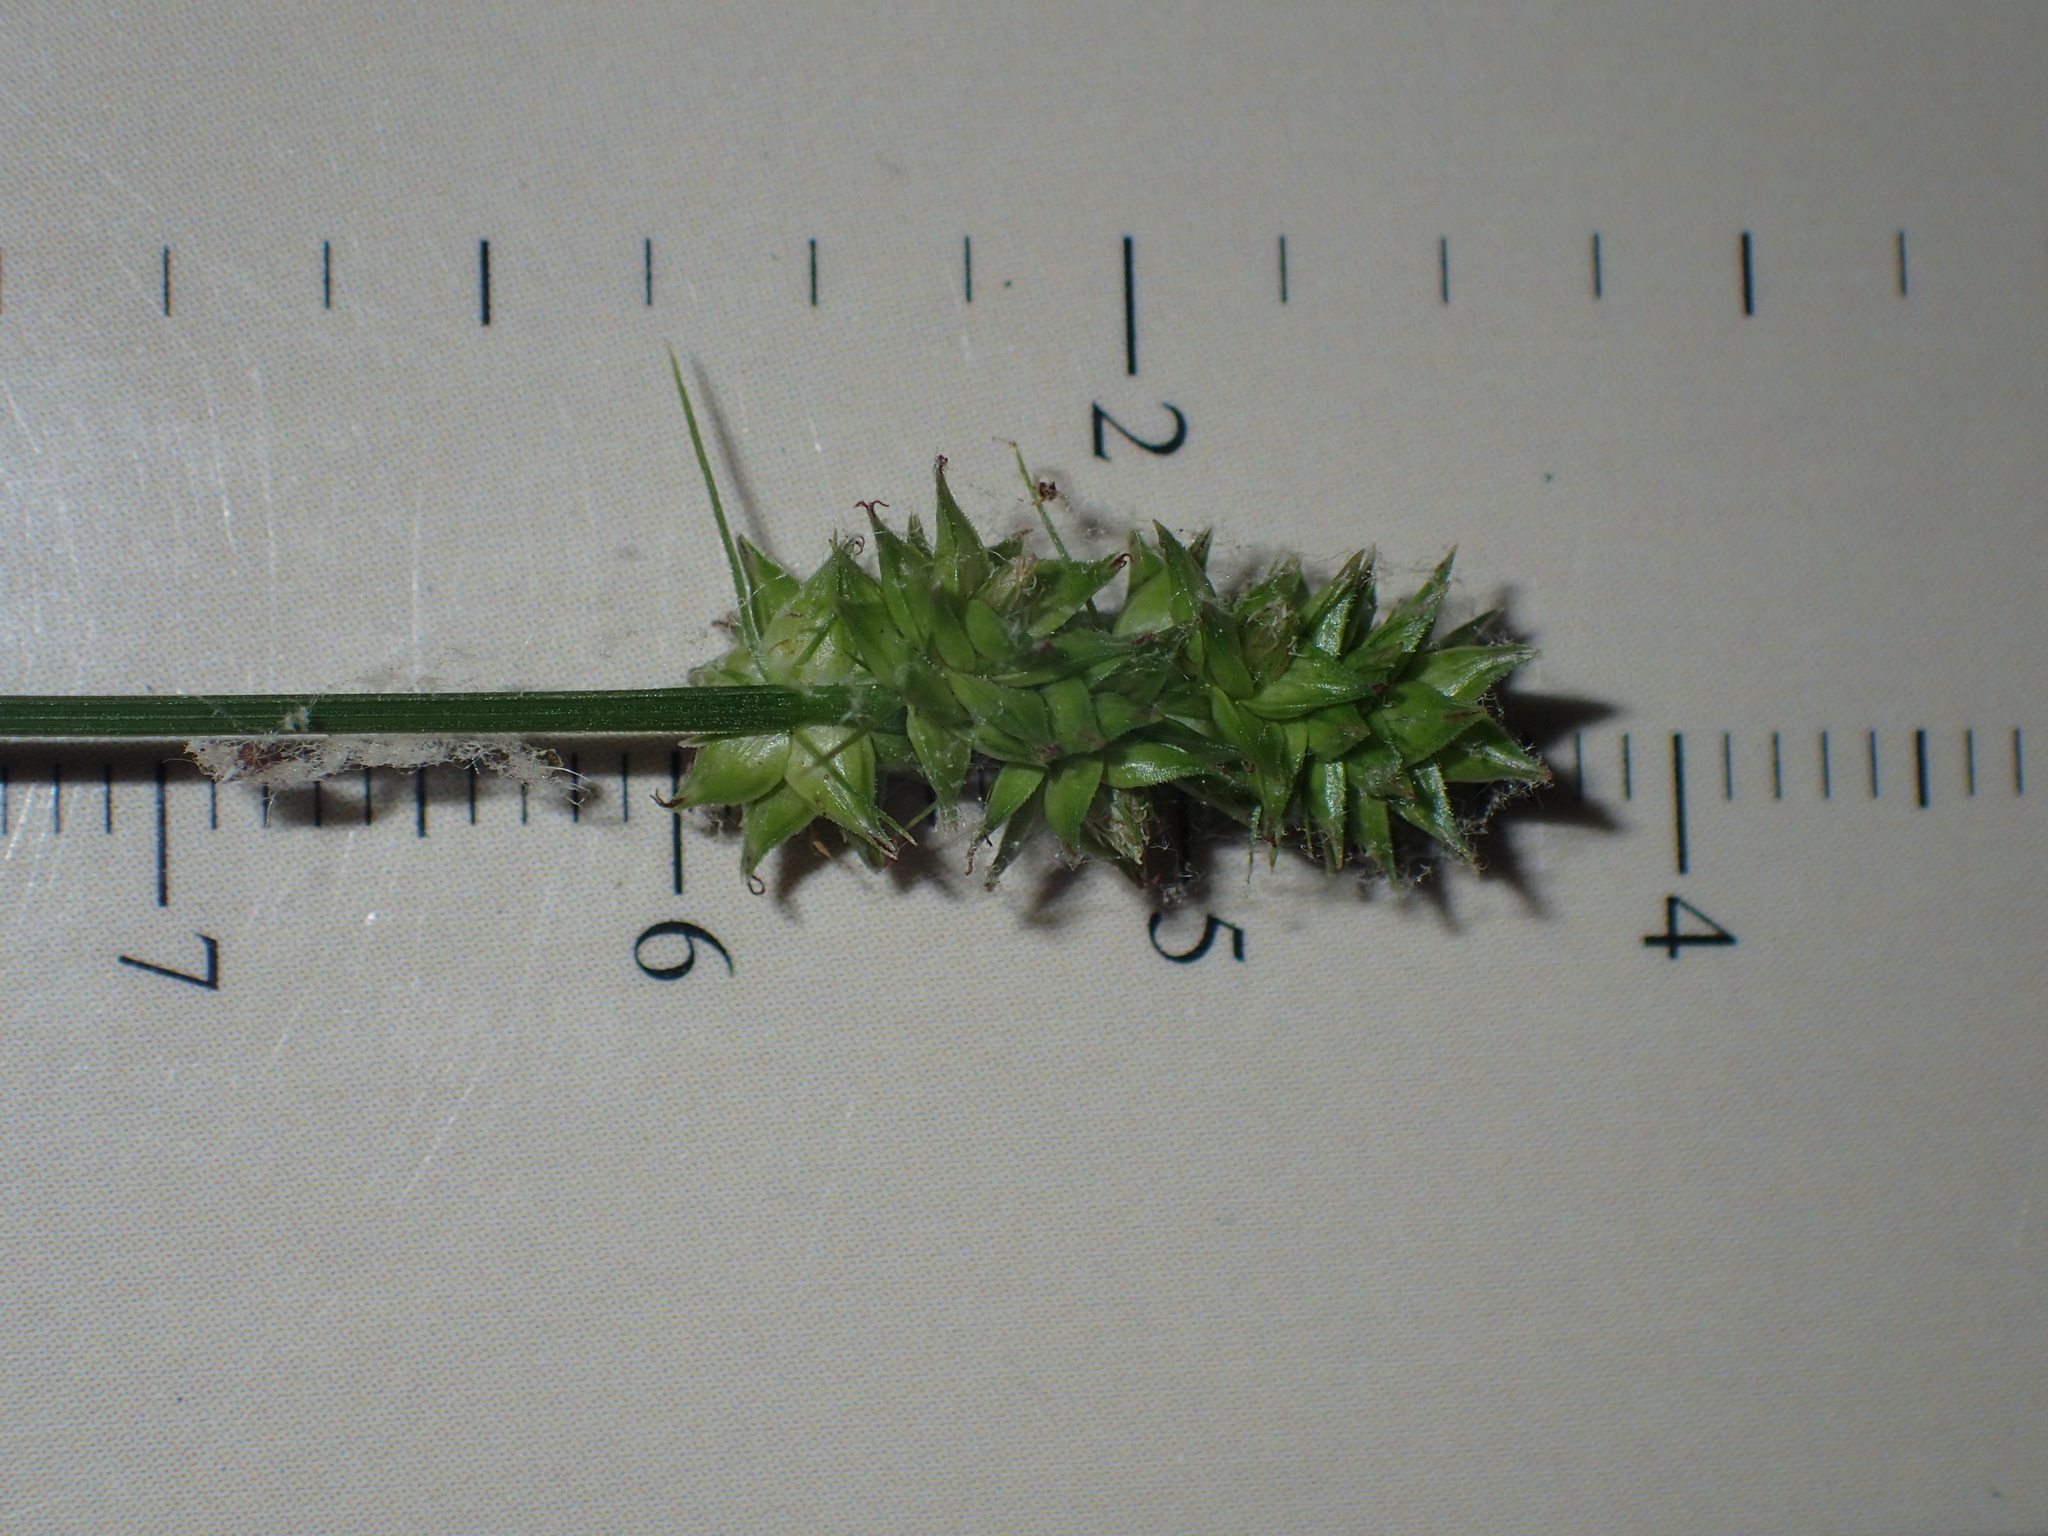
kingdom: Plantae
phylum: Tracheophyta
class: Liliopsida
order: Poales
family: Cyperaceae
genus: Carex
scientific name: Carex cephalophora
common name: Oval-headed sedge
